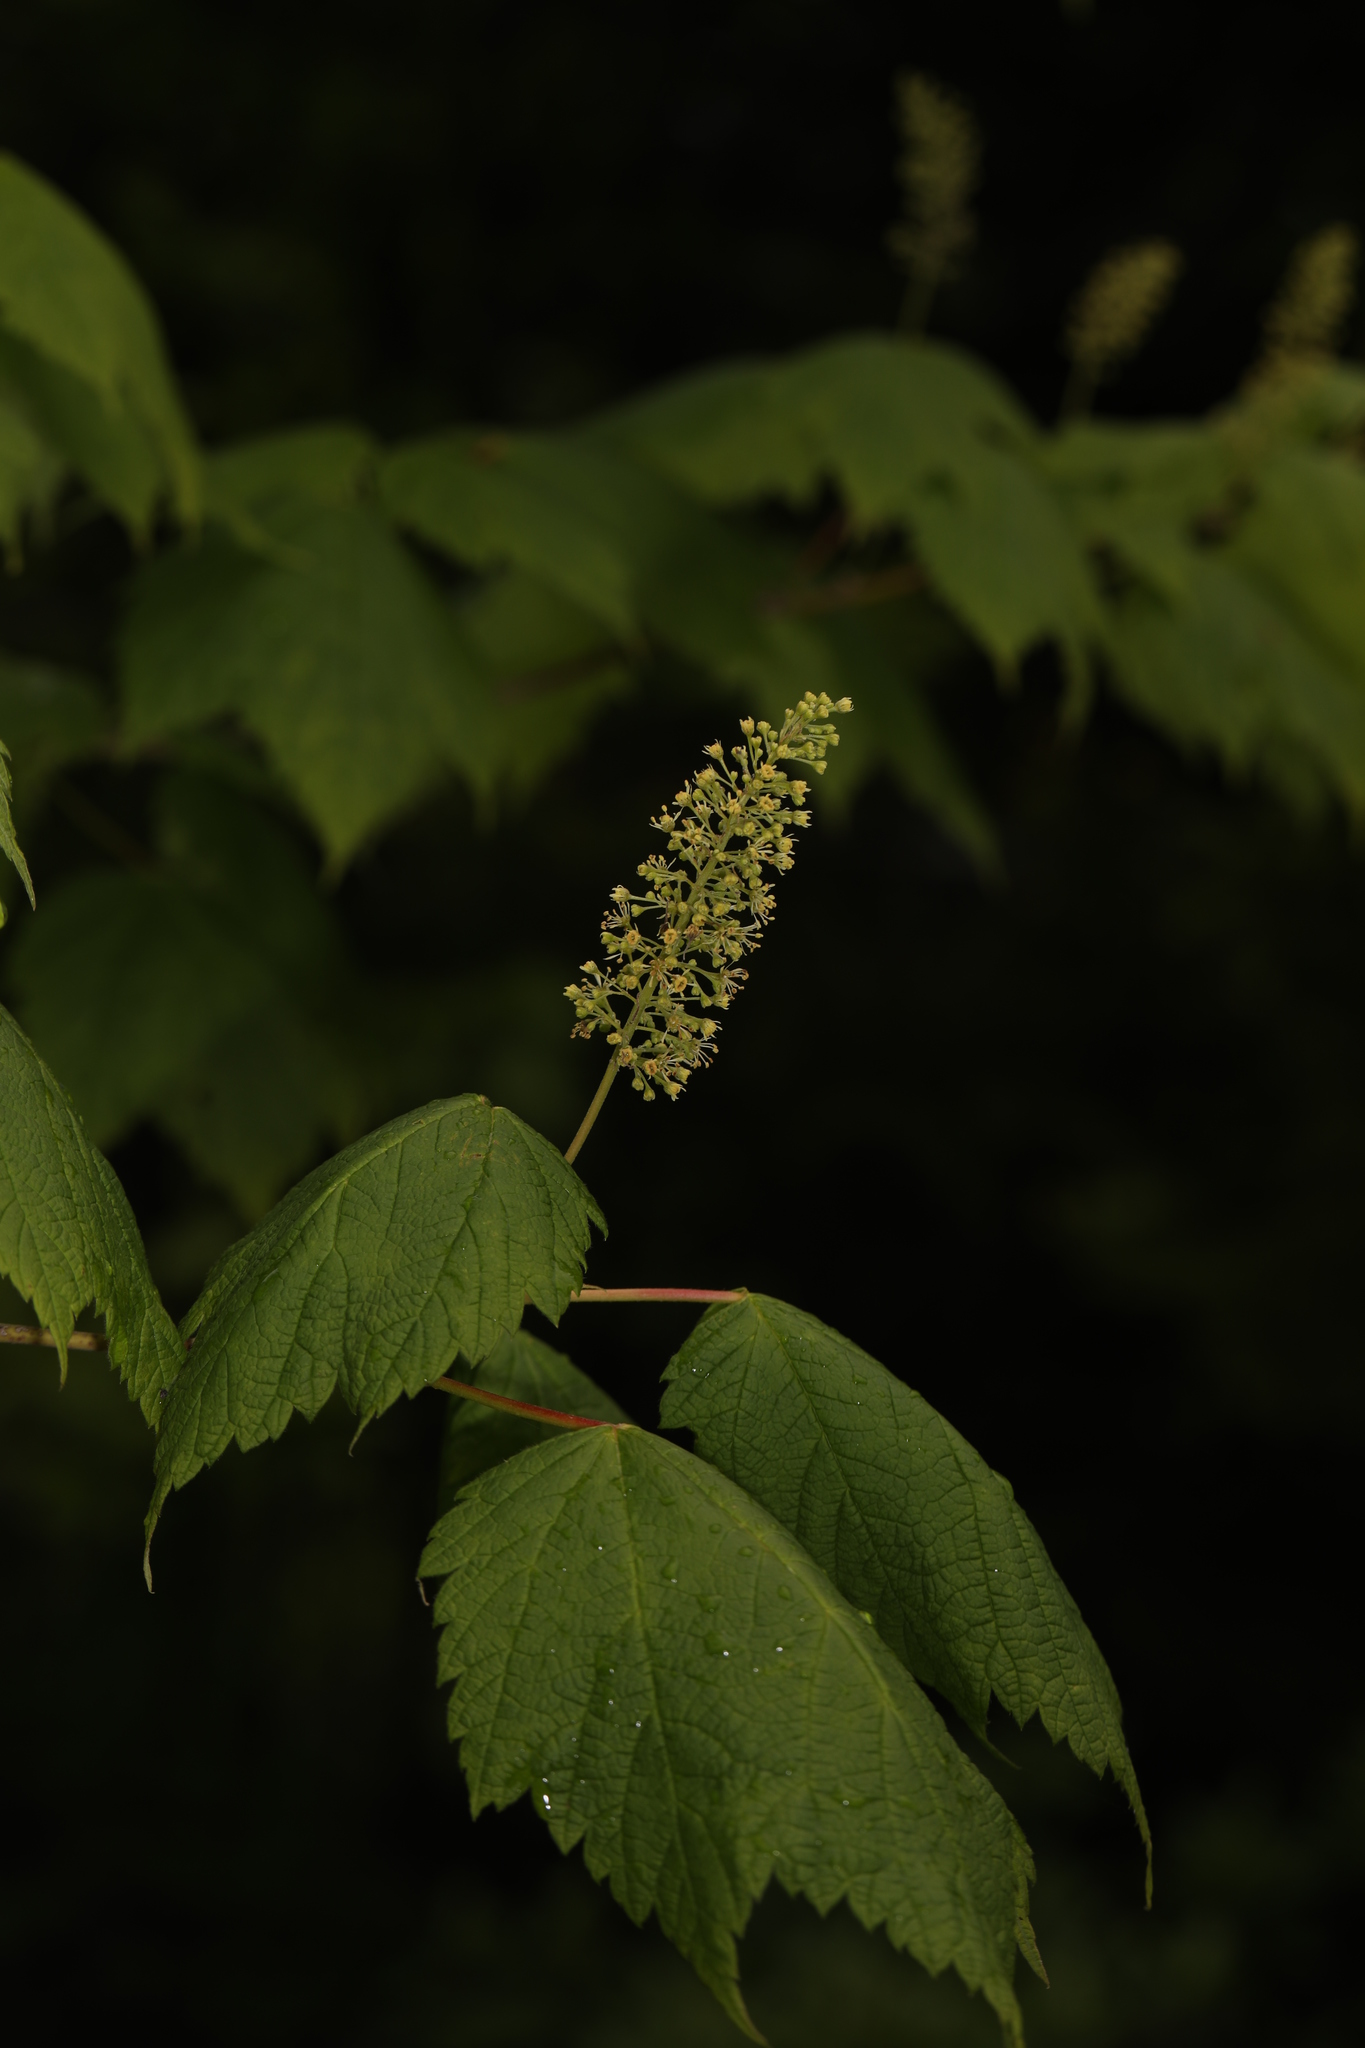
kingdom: Plantae
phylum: Tracheophyta
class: Magnoliopsida
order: Sapindales
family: Sapindaceae
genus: Acer
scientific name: Acer spicatum
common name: Mountain maple
